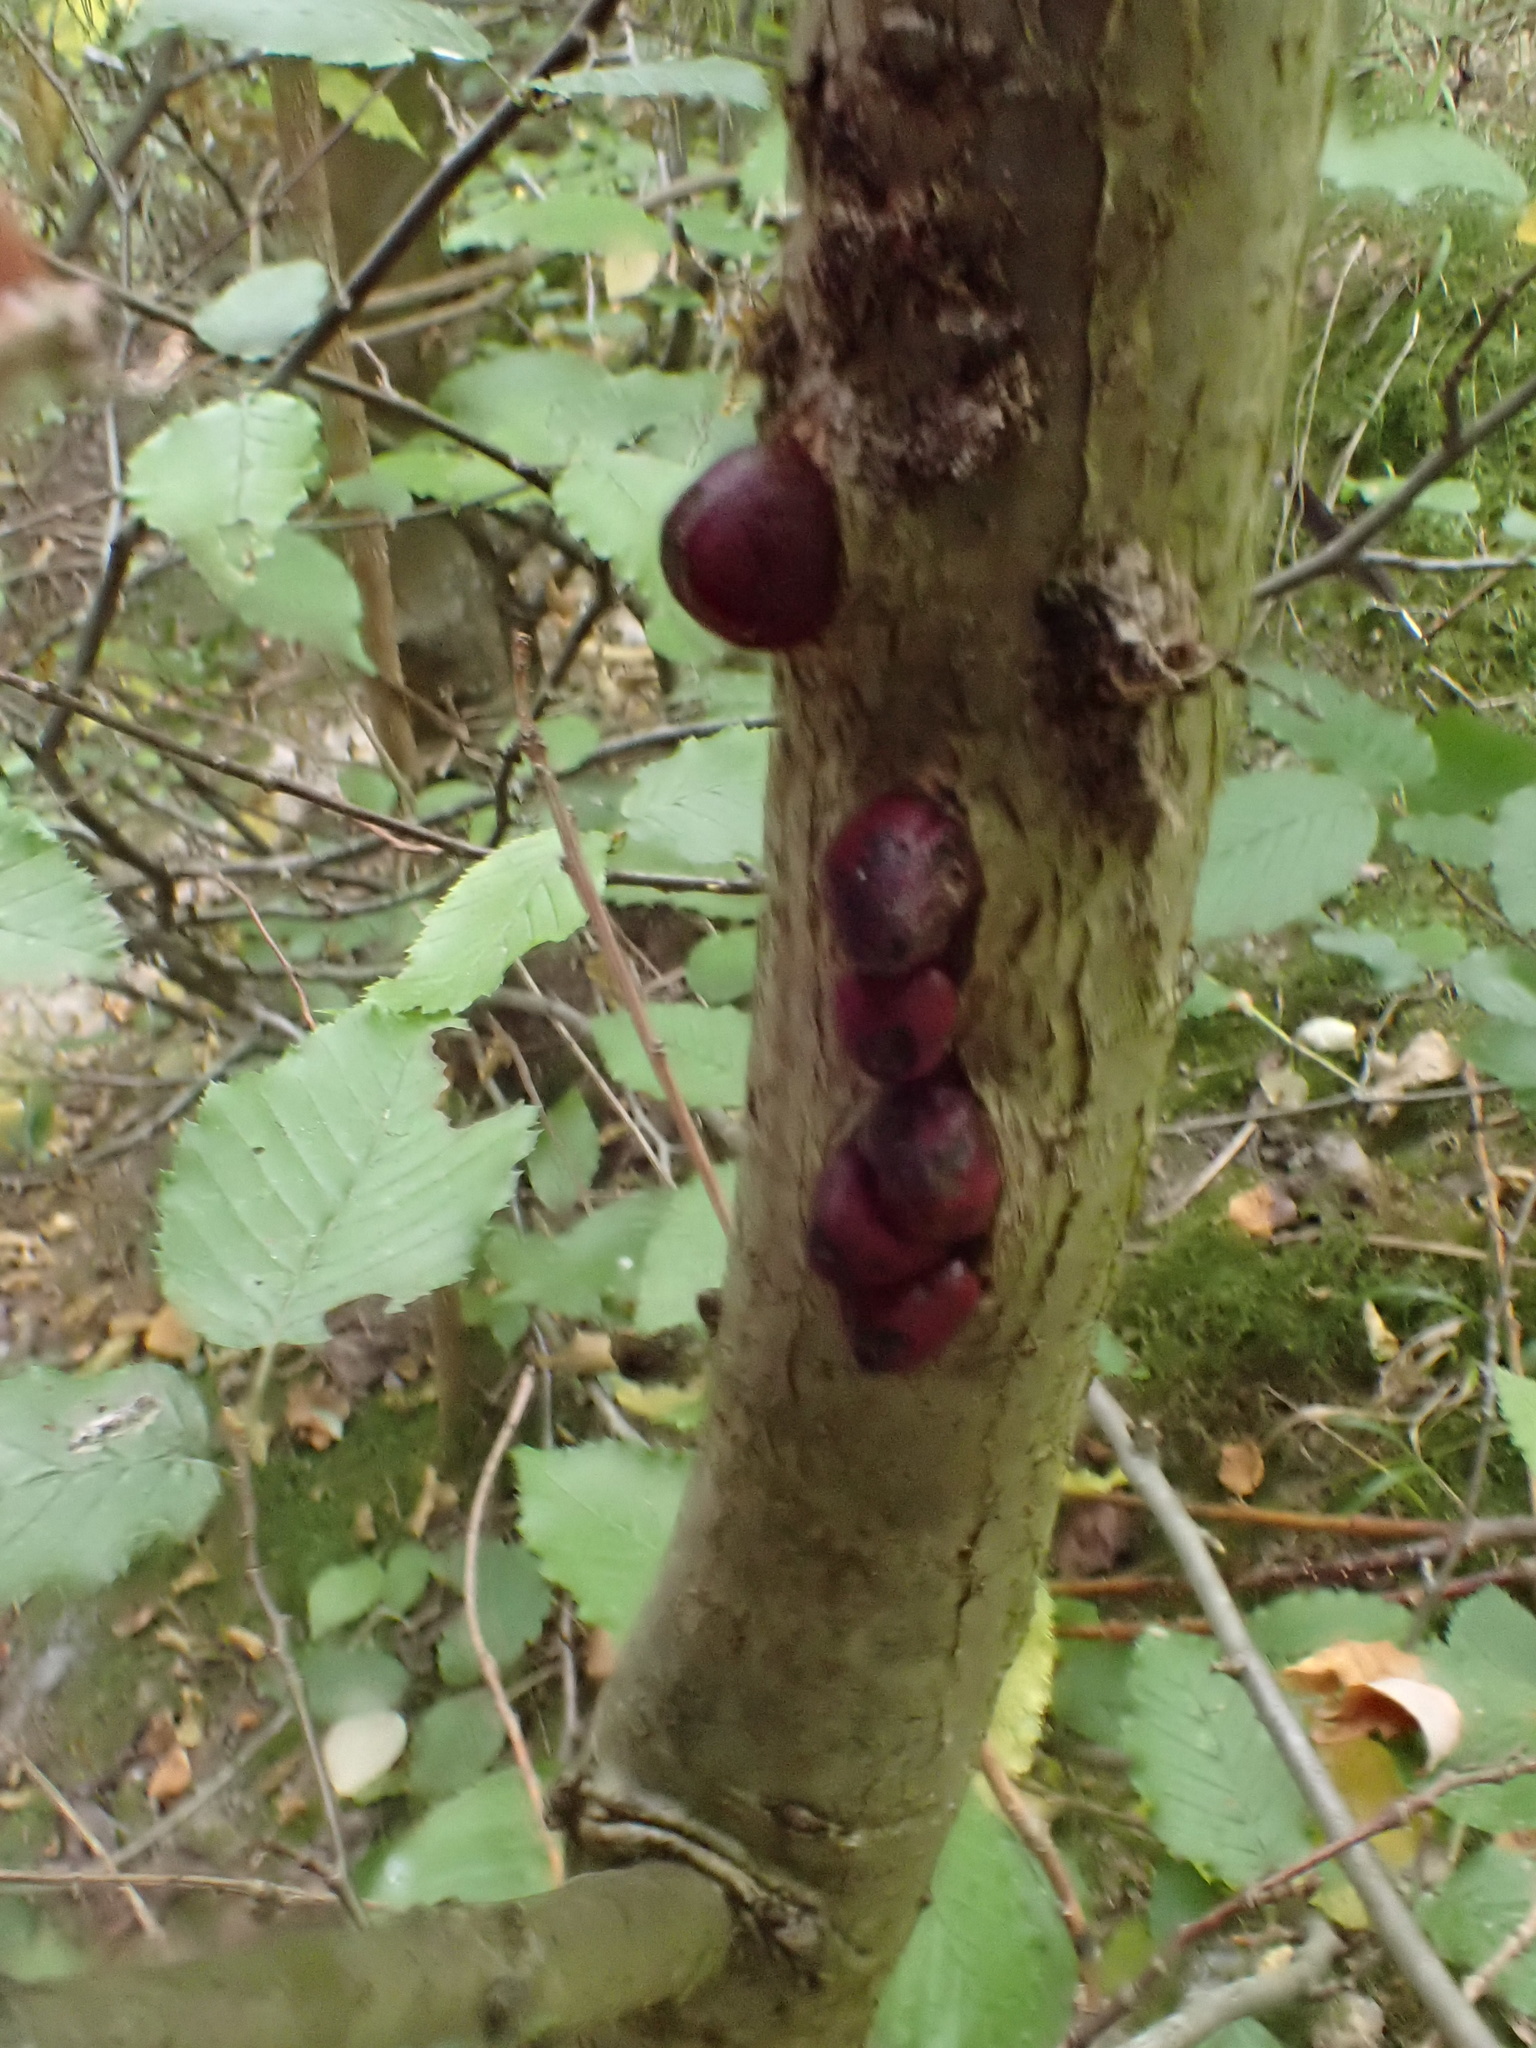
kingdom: Animalia
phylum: Arthropoda
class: Insecta
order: Hymenoptera
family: Cynipidae
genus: Andricus
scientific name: Andricus quercuscorticis
